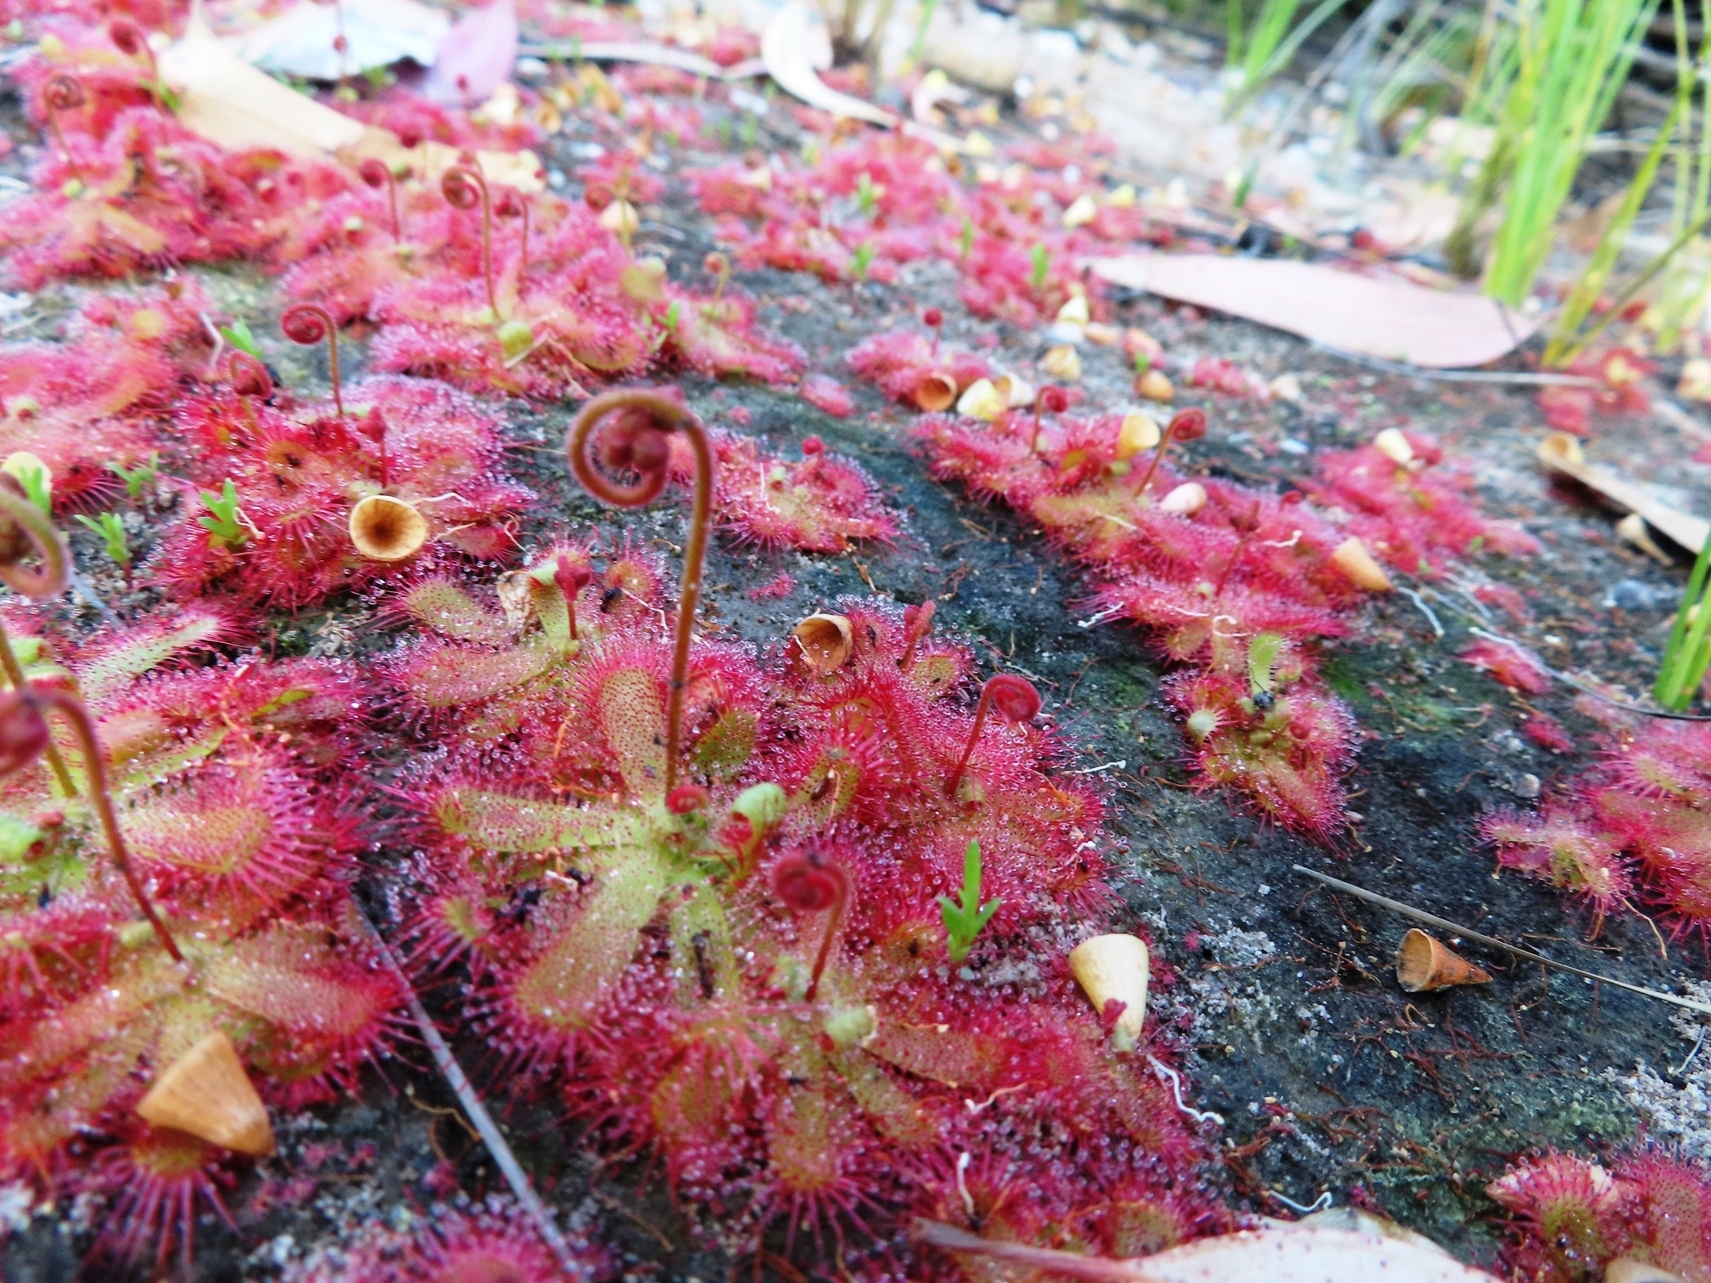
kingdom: Plantae
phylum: Tracheophyta
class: Magnoliopsida
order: Caryophyllales
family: Droseraceae
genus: Drosera
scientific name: Drosera trinervia
